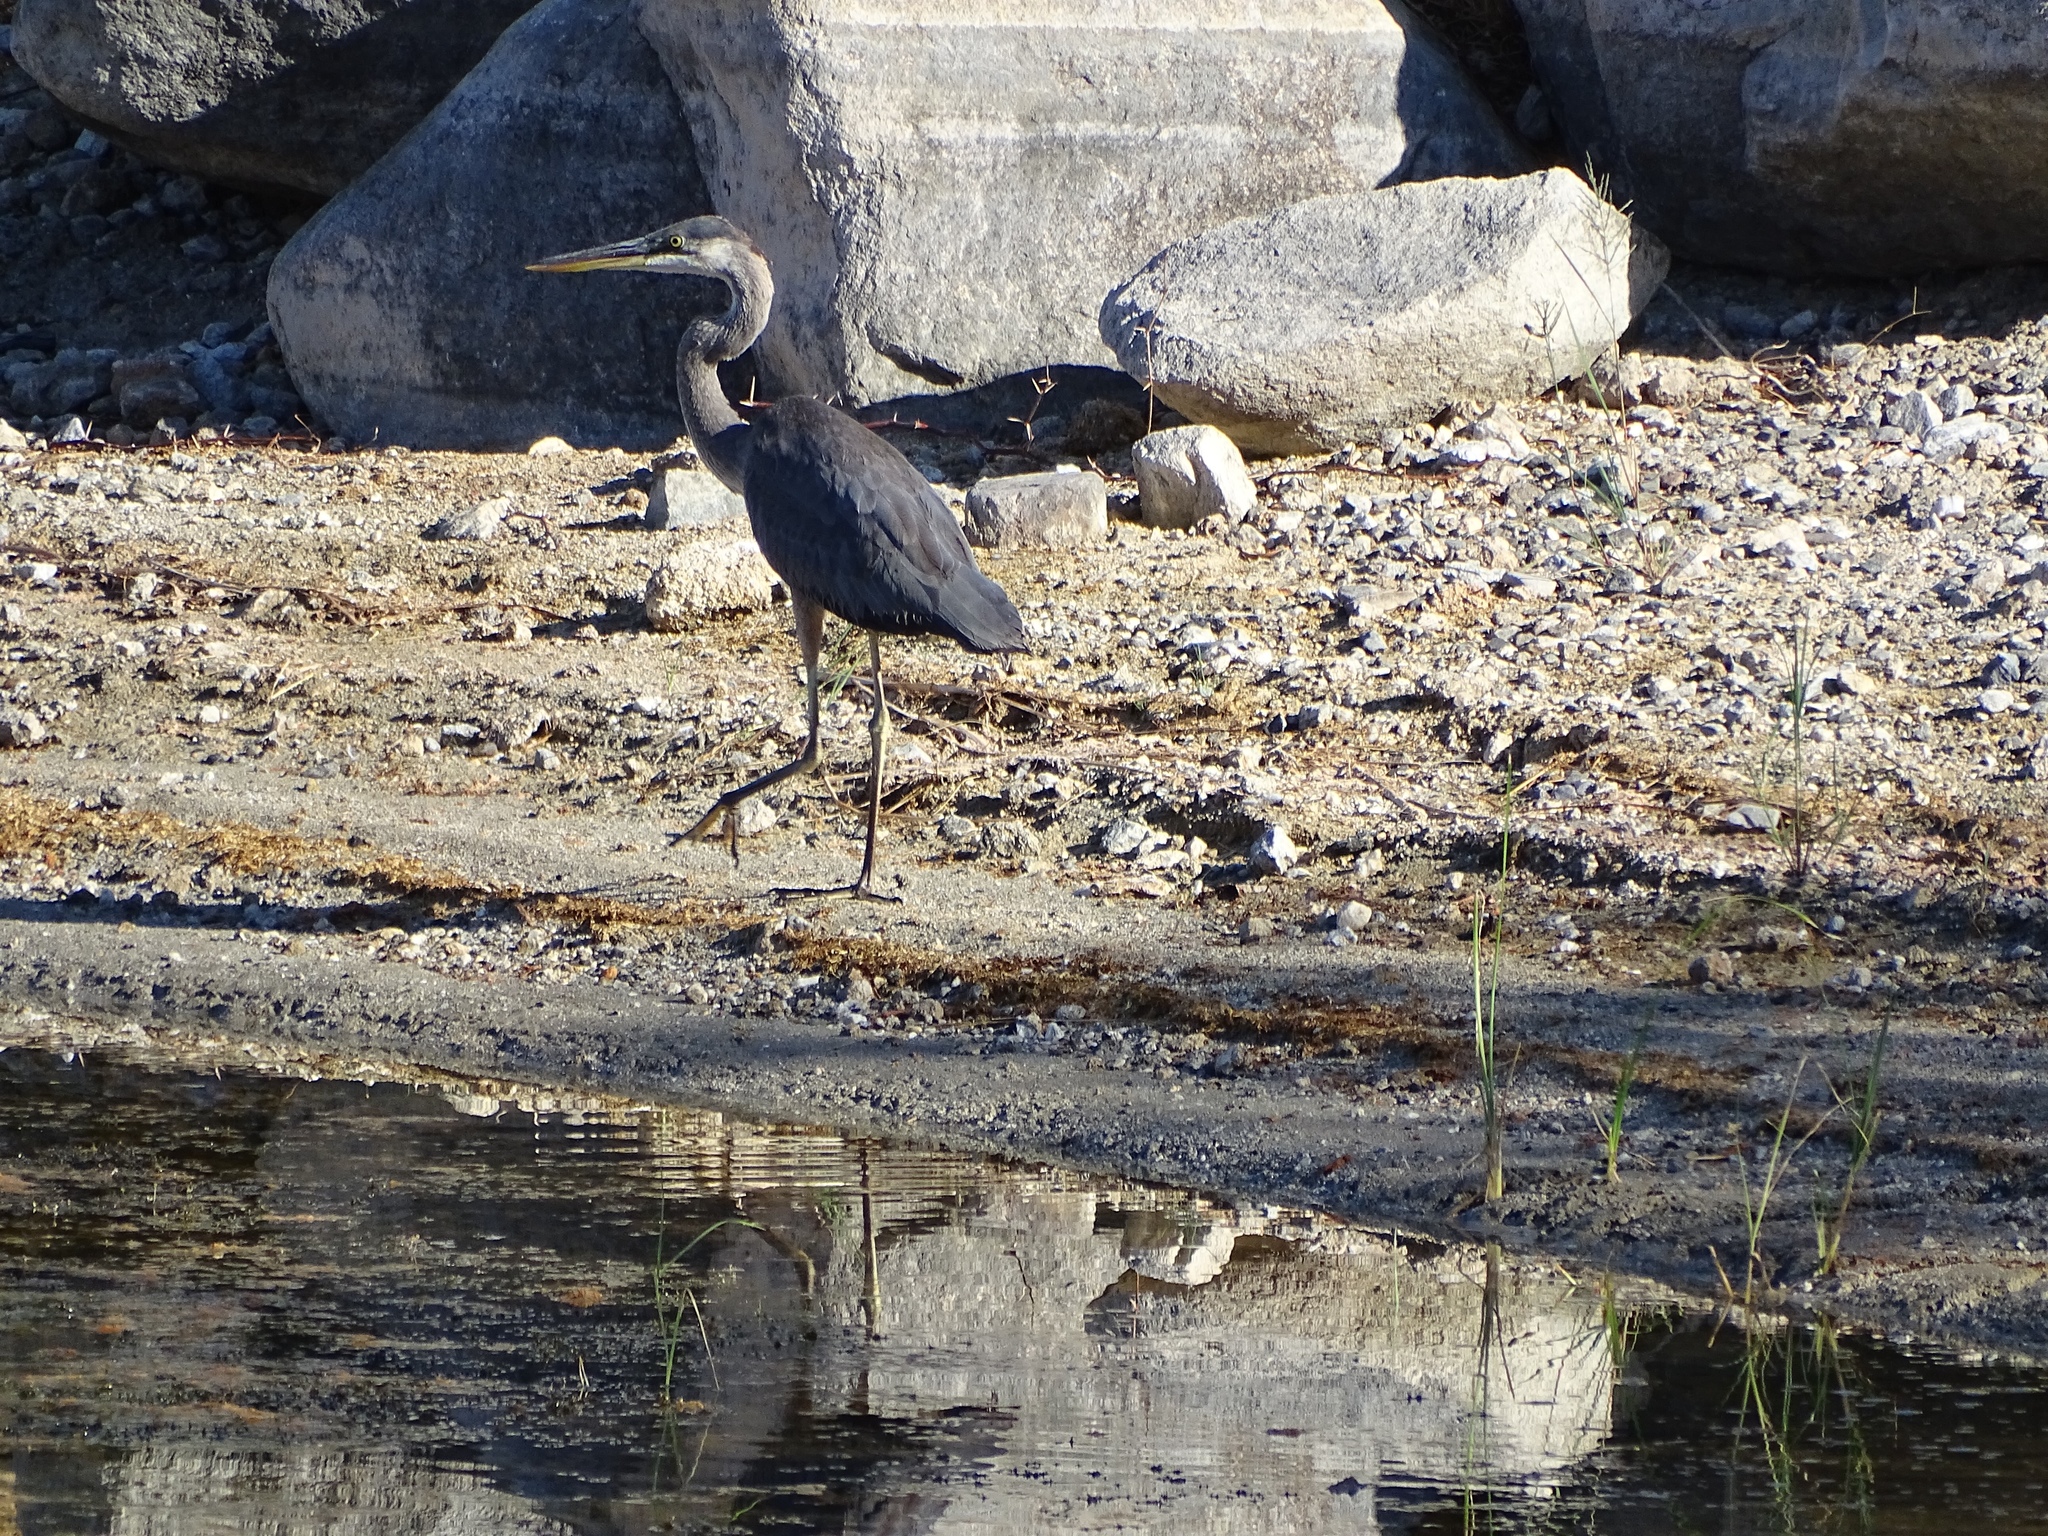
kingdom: Animalia
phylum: Chordata
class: Aves
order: Pelecaniformes
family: Ardeidae
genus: Ardea
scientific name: Ardea herodias
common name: Great blue heron
